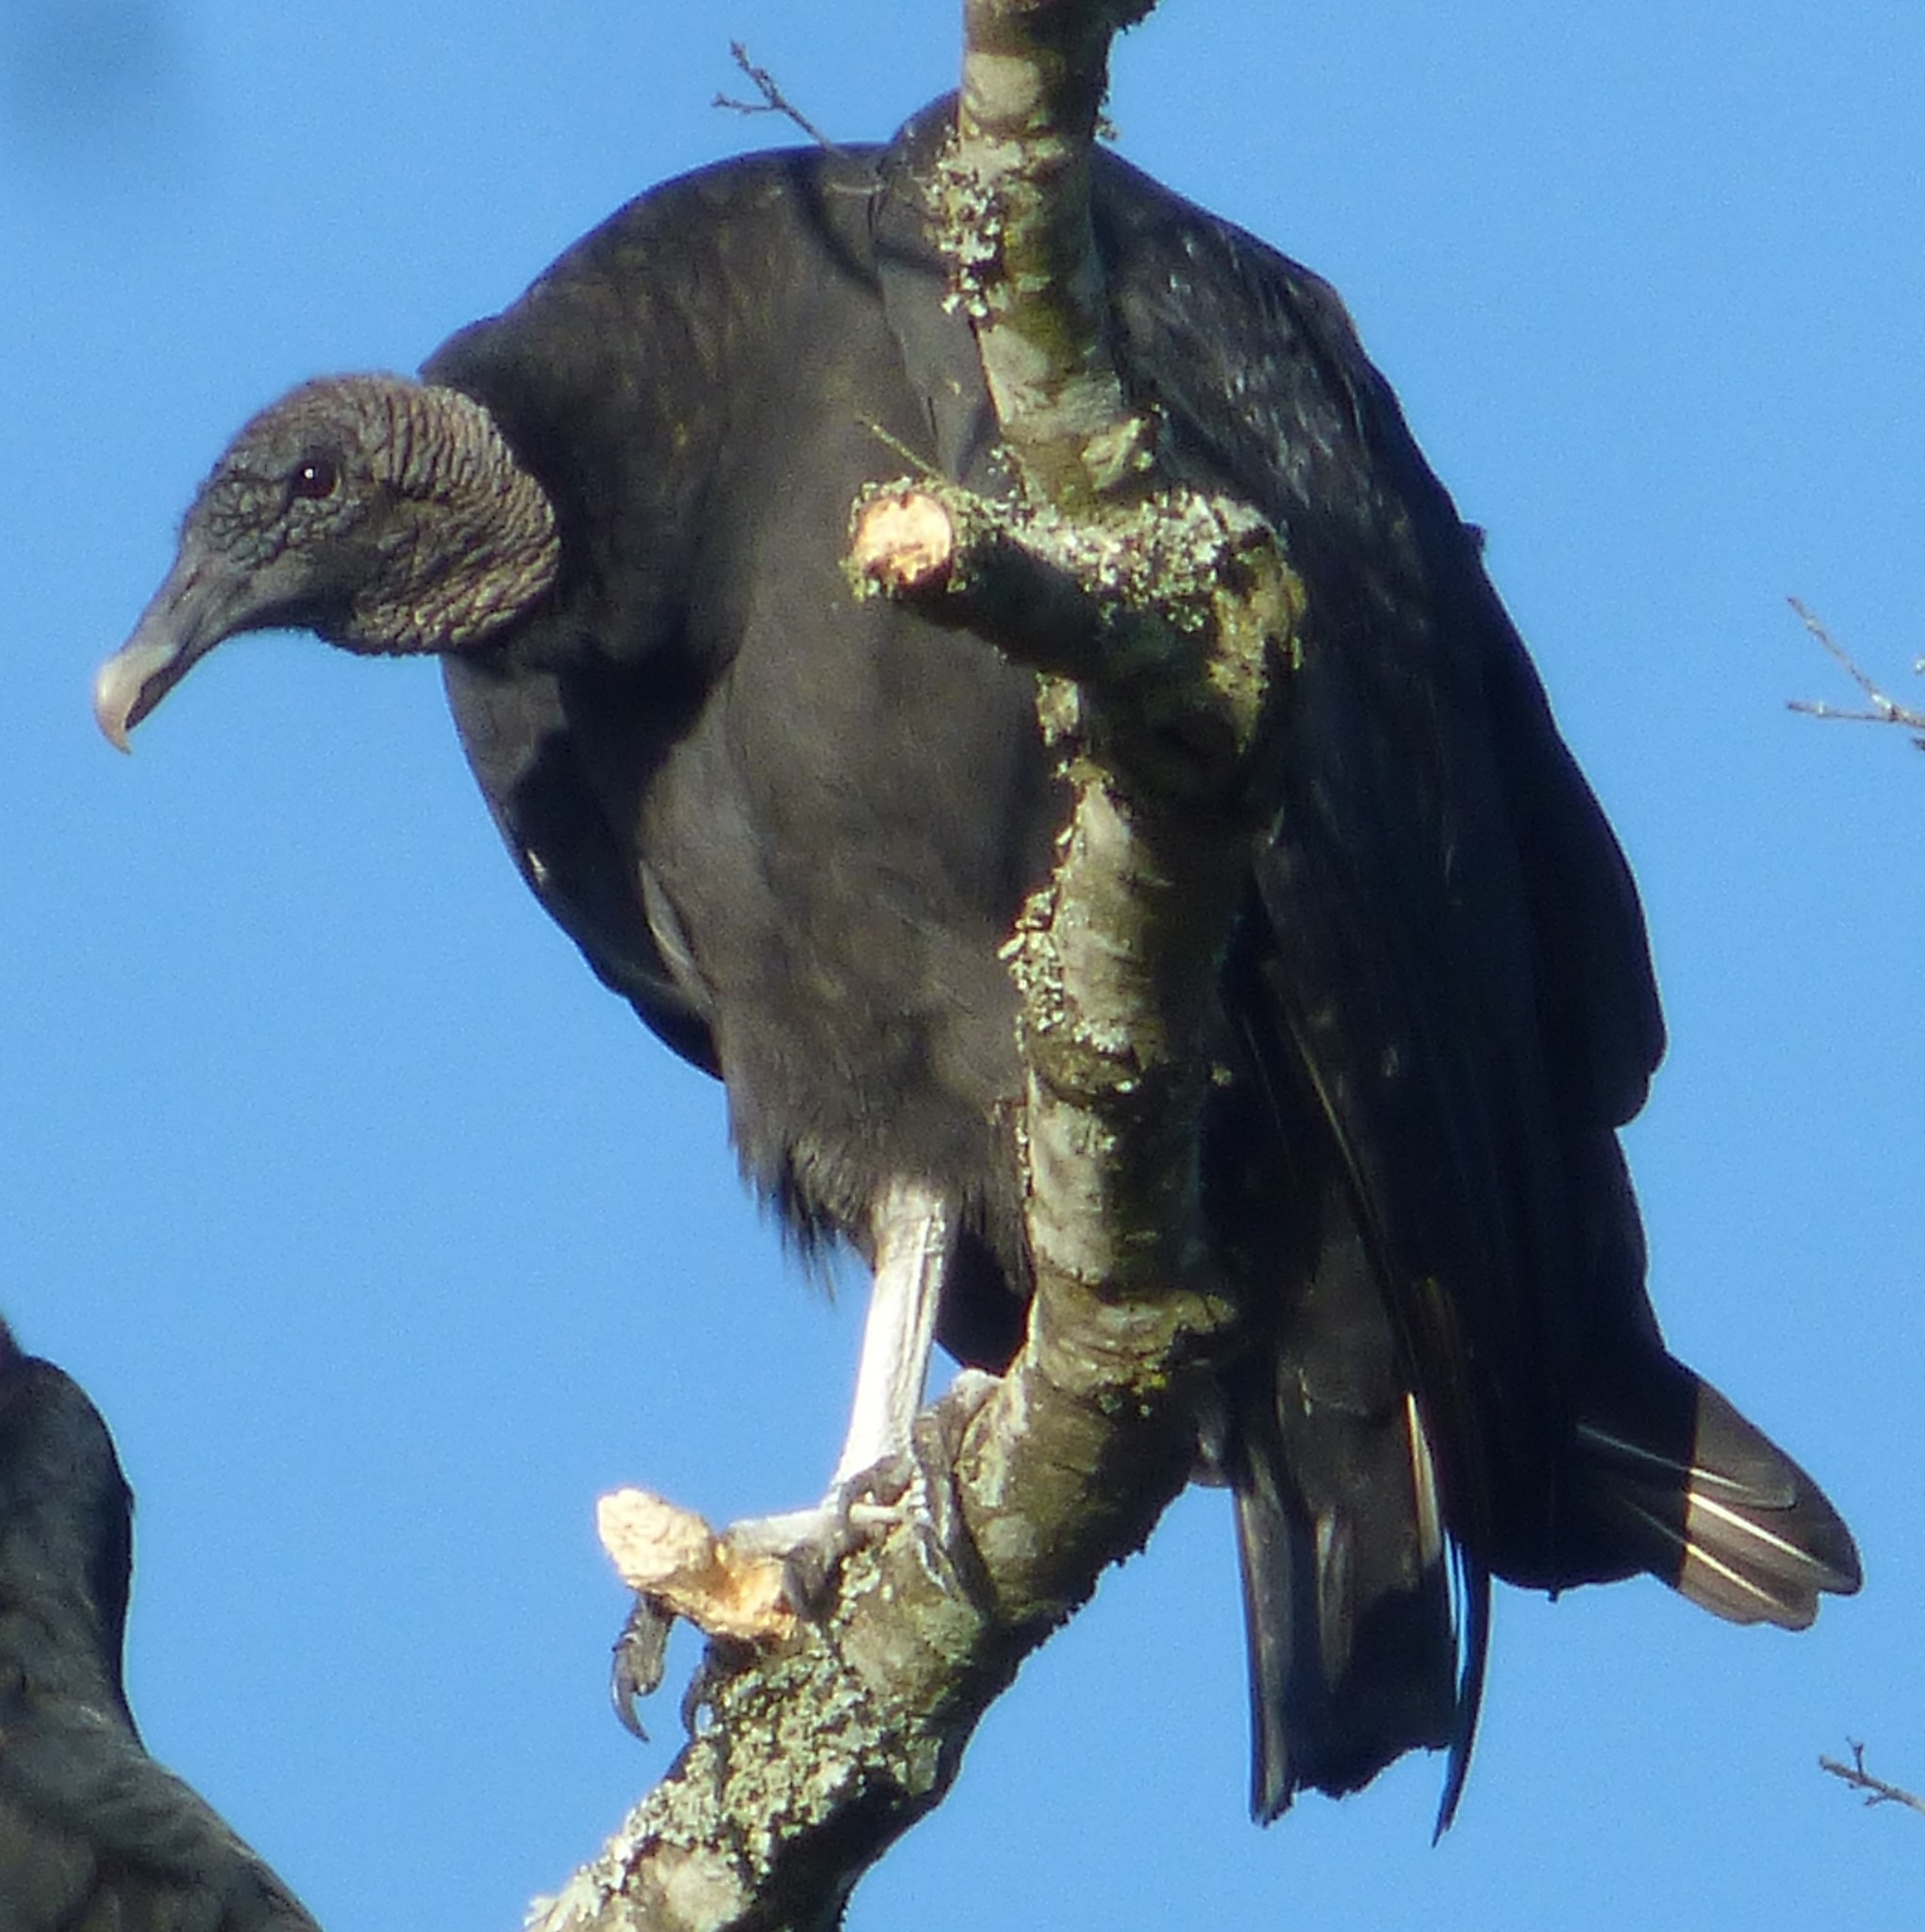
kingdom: Animalia
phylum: Chordata
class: Aves
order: Accipitriformes
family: Cathartidae
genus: Coragyps
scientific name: Coragyps atratus
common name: Black vulture
